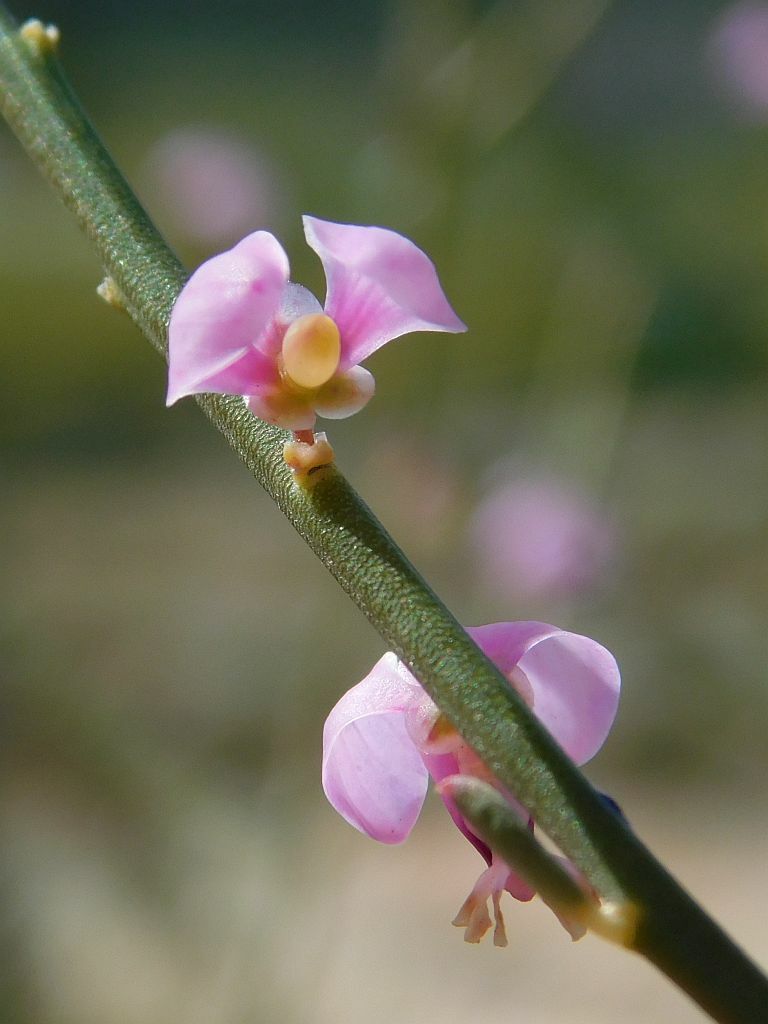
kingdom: Plantae
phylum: Tracheophyta
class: Magnoliopsida
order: Fabales
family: Polygalaceae
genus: Muraltia
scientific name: Muraltia spinosa
